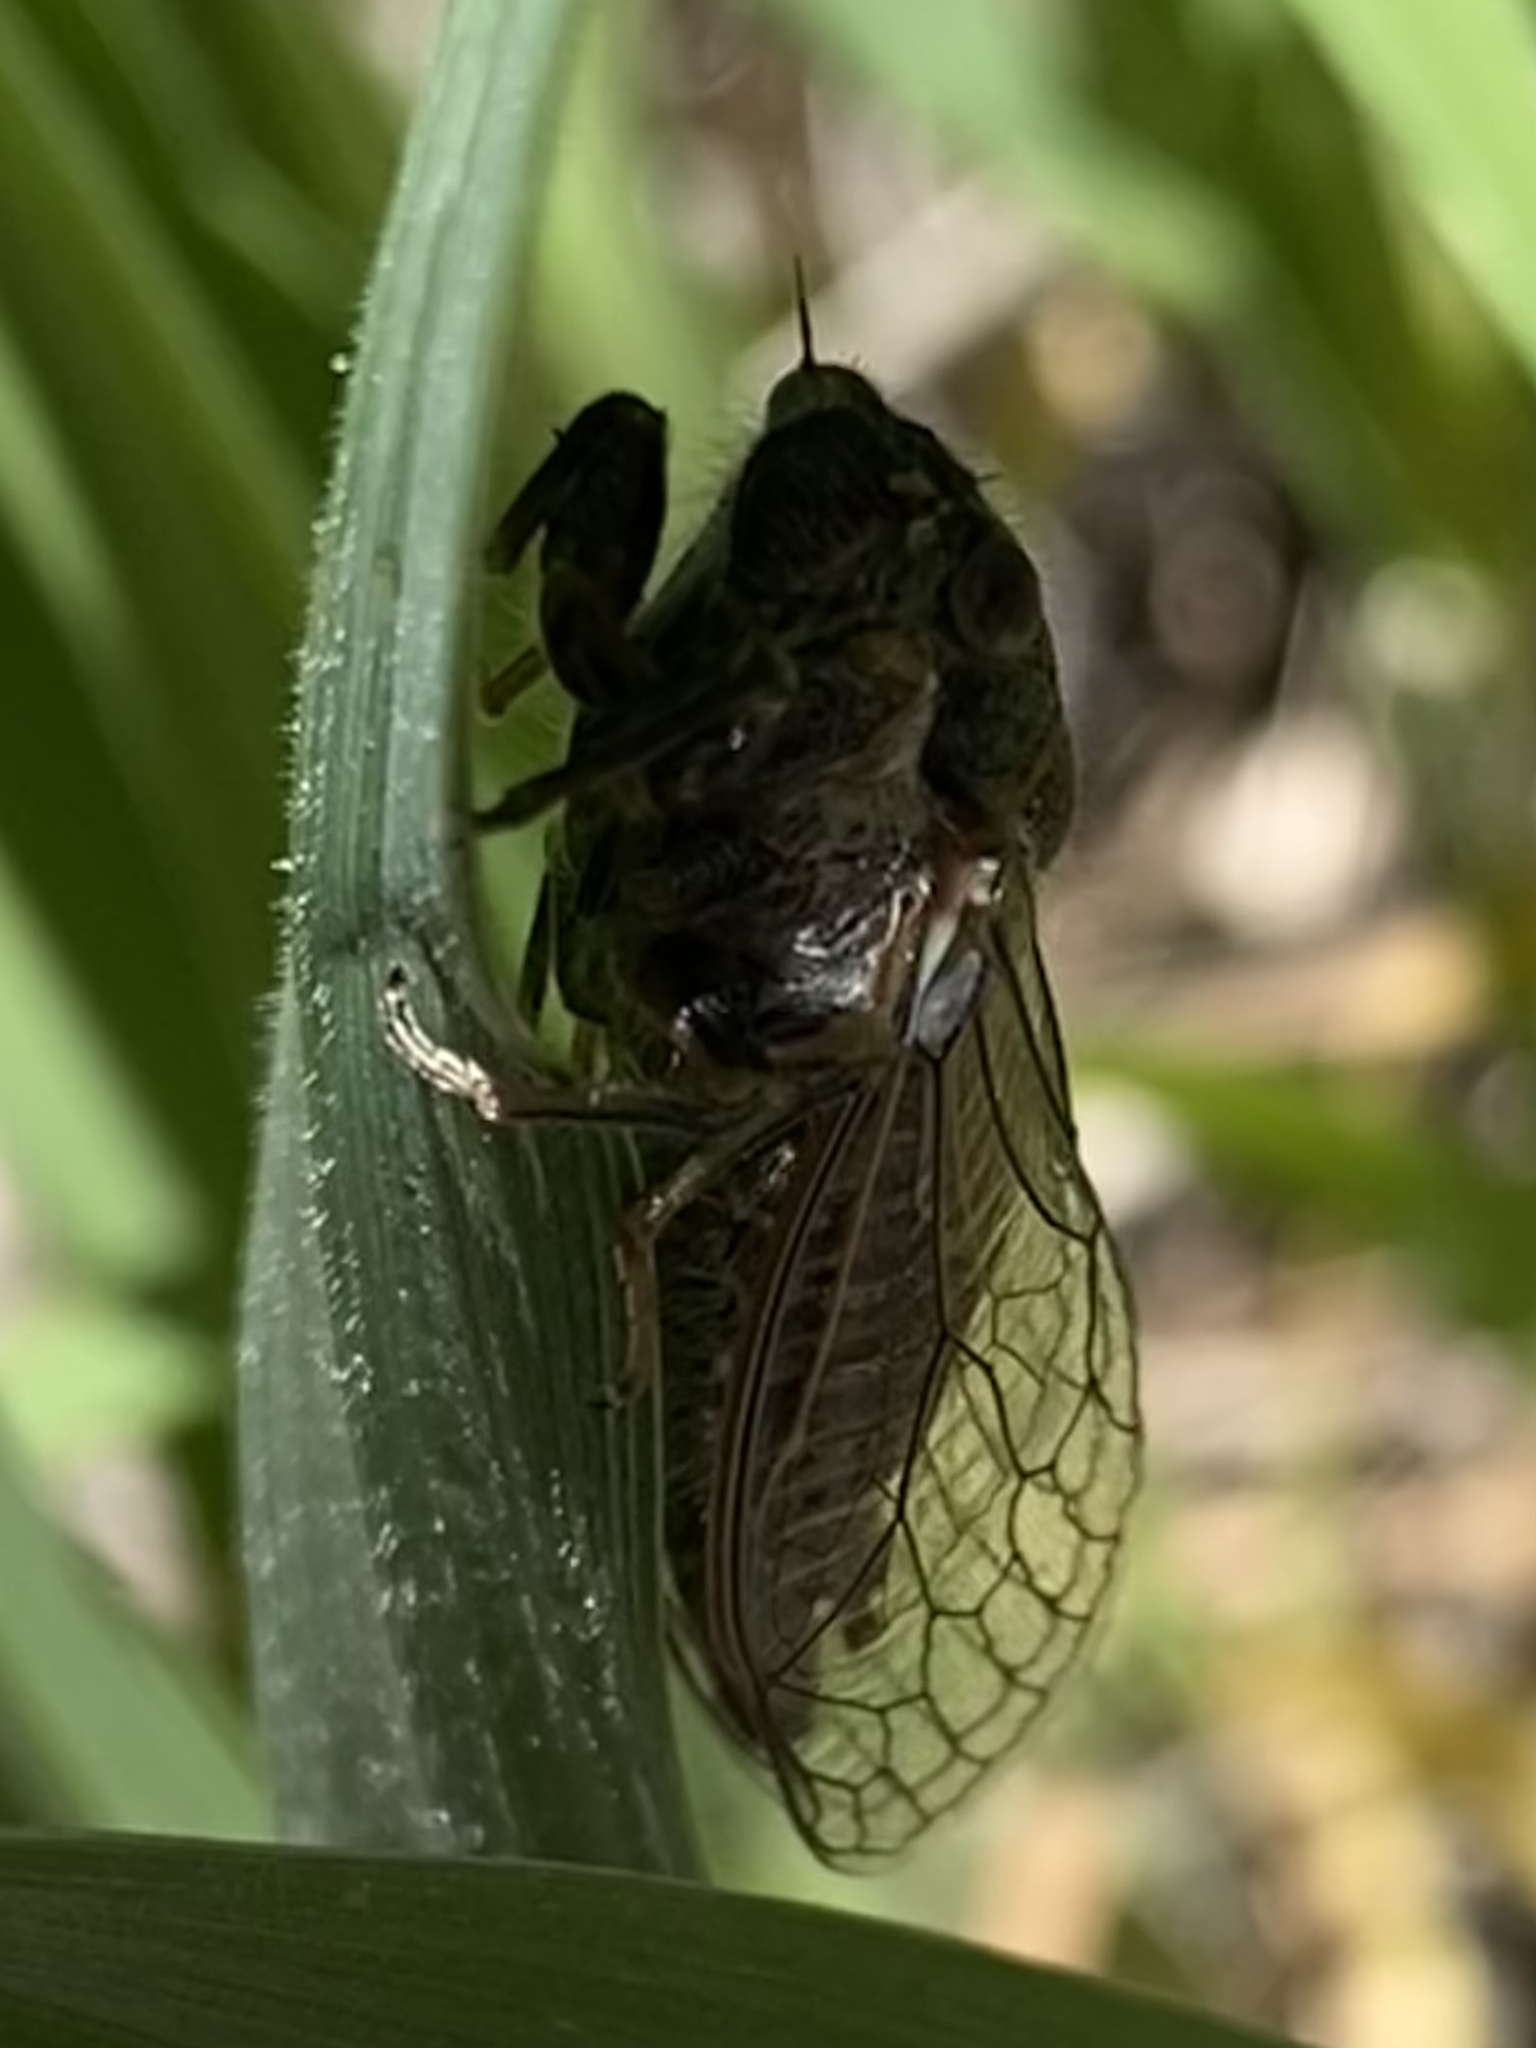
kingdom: Animalia
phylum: Arthropoda
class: Insecta
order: Hemiptera
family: Cicadidae
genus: Platypedia
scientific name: Platypedia
